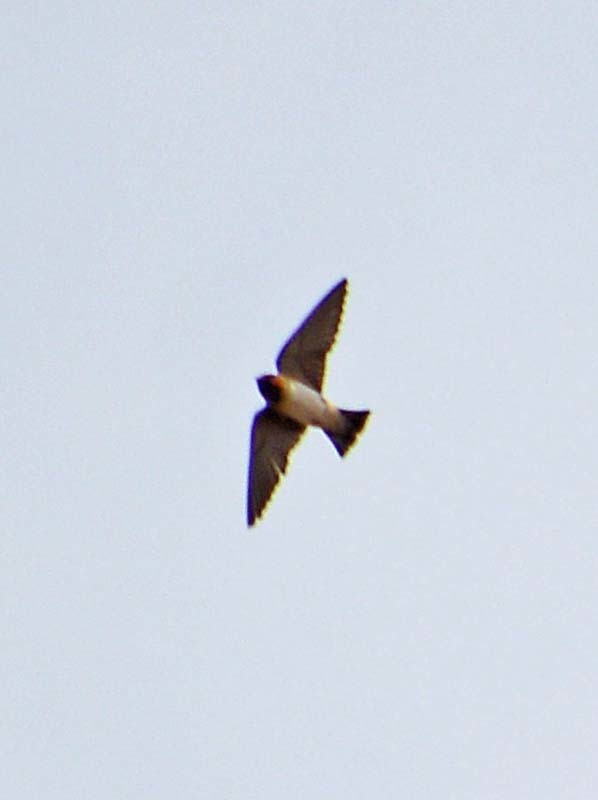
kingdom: Animalia
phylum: Chordata
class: Aves
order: Passeriformes
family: Hirundinidae
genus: Petrochelidon
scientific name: Petrochelidon pyrrhonota
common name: American cliff swallow
